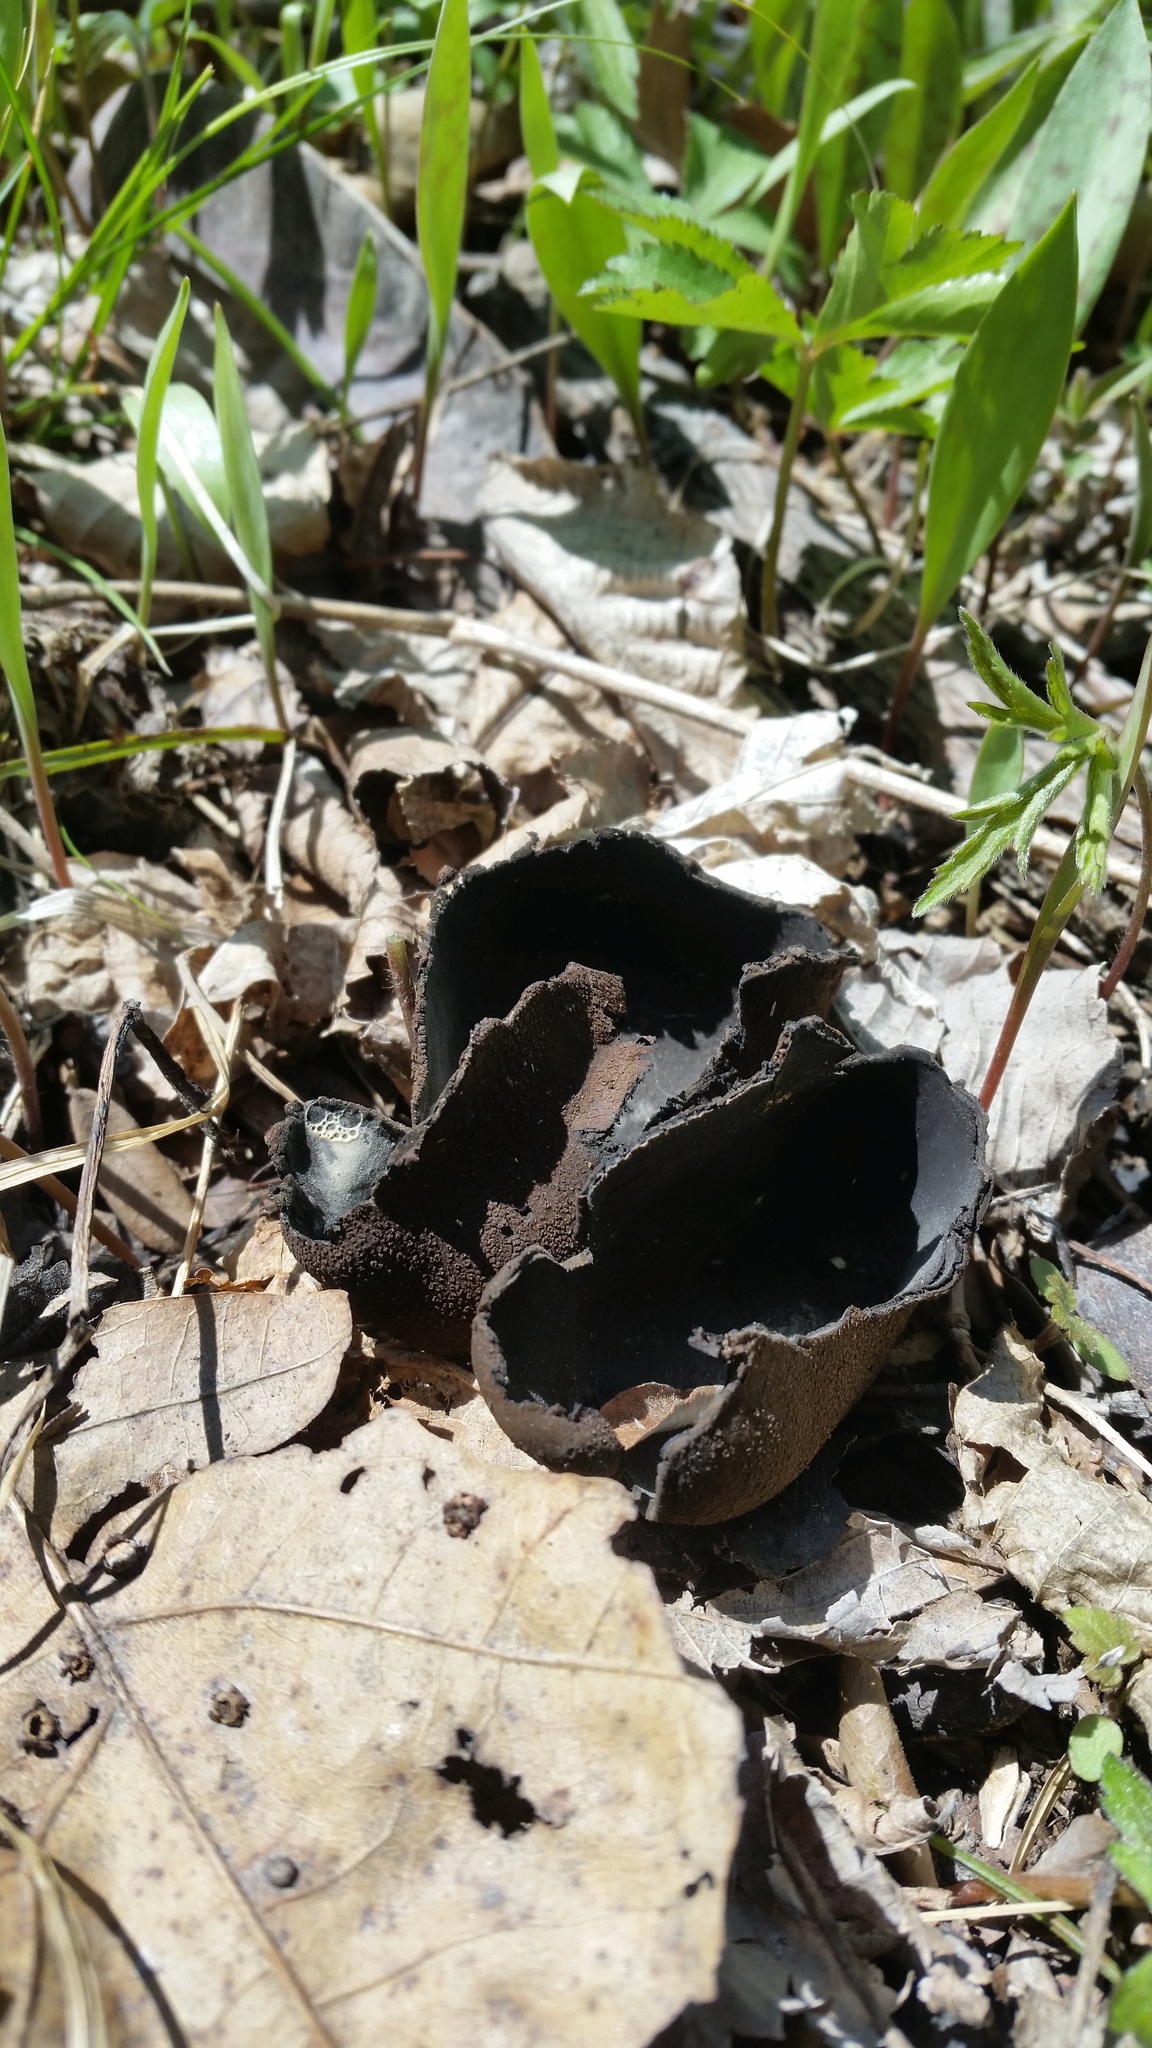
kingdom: Fungi
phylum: Ascomycota
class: Pezizomycetes
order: Pezizales
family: Sarcosomataceae
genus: Urnula
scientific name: Urnula craterium
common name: Devil's urn
